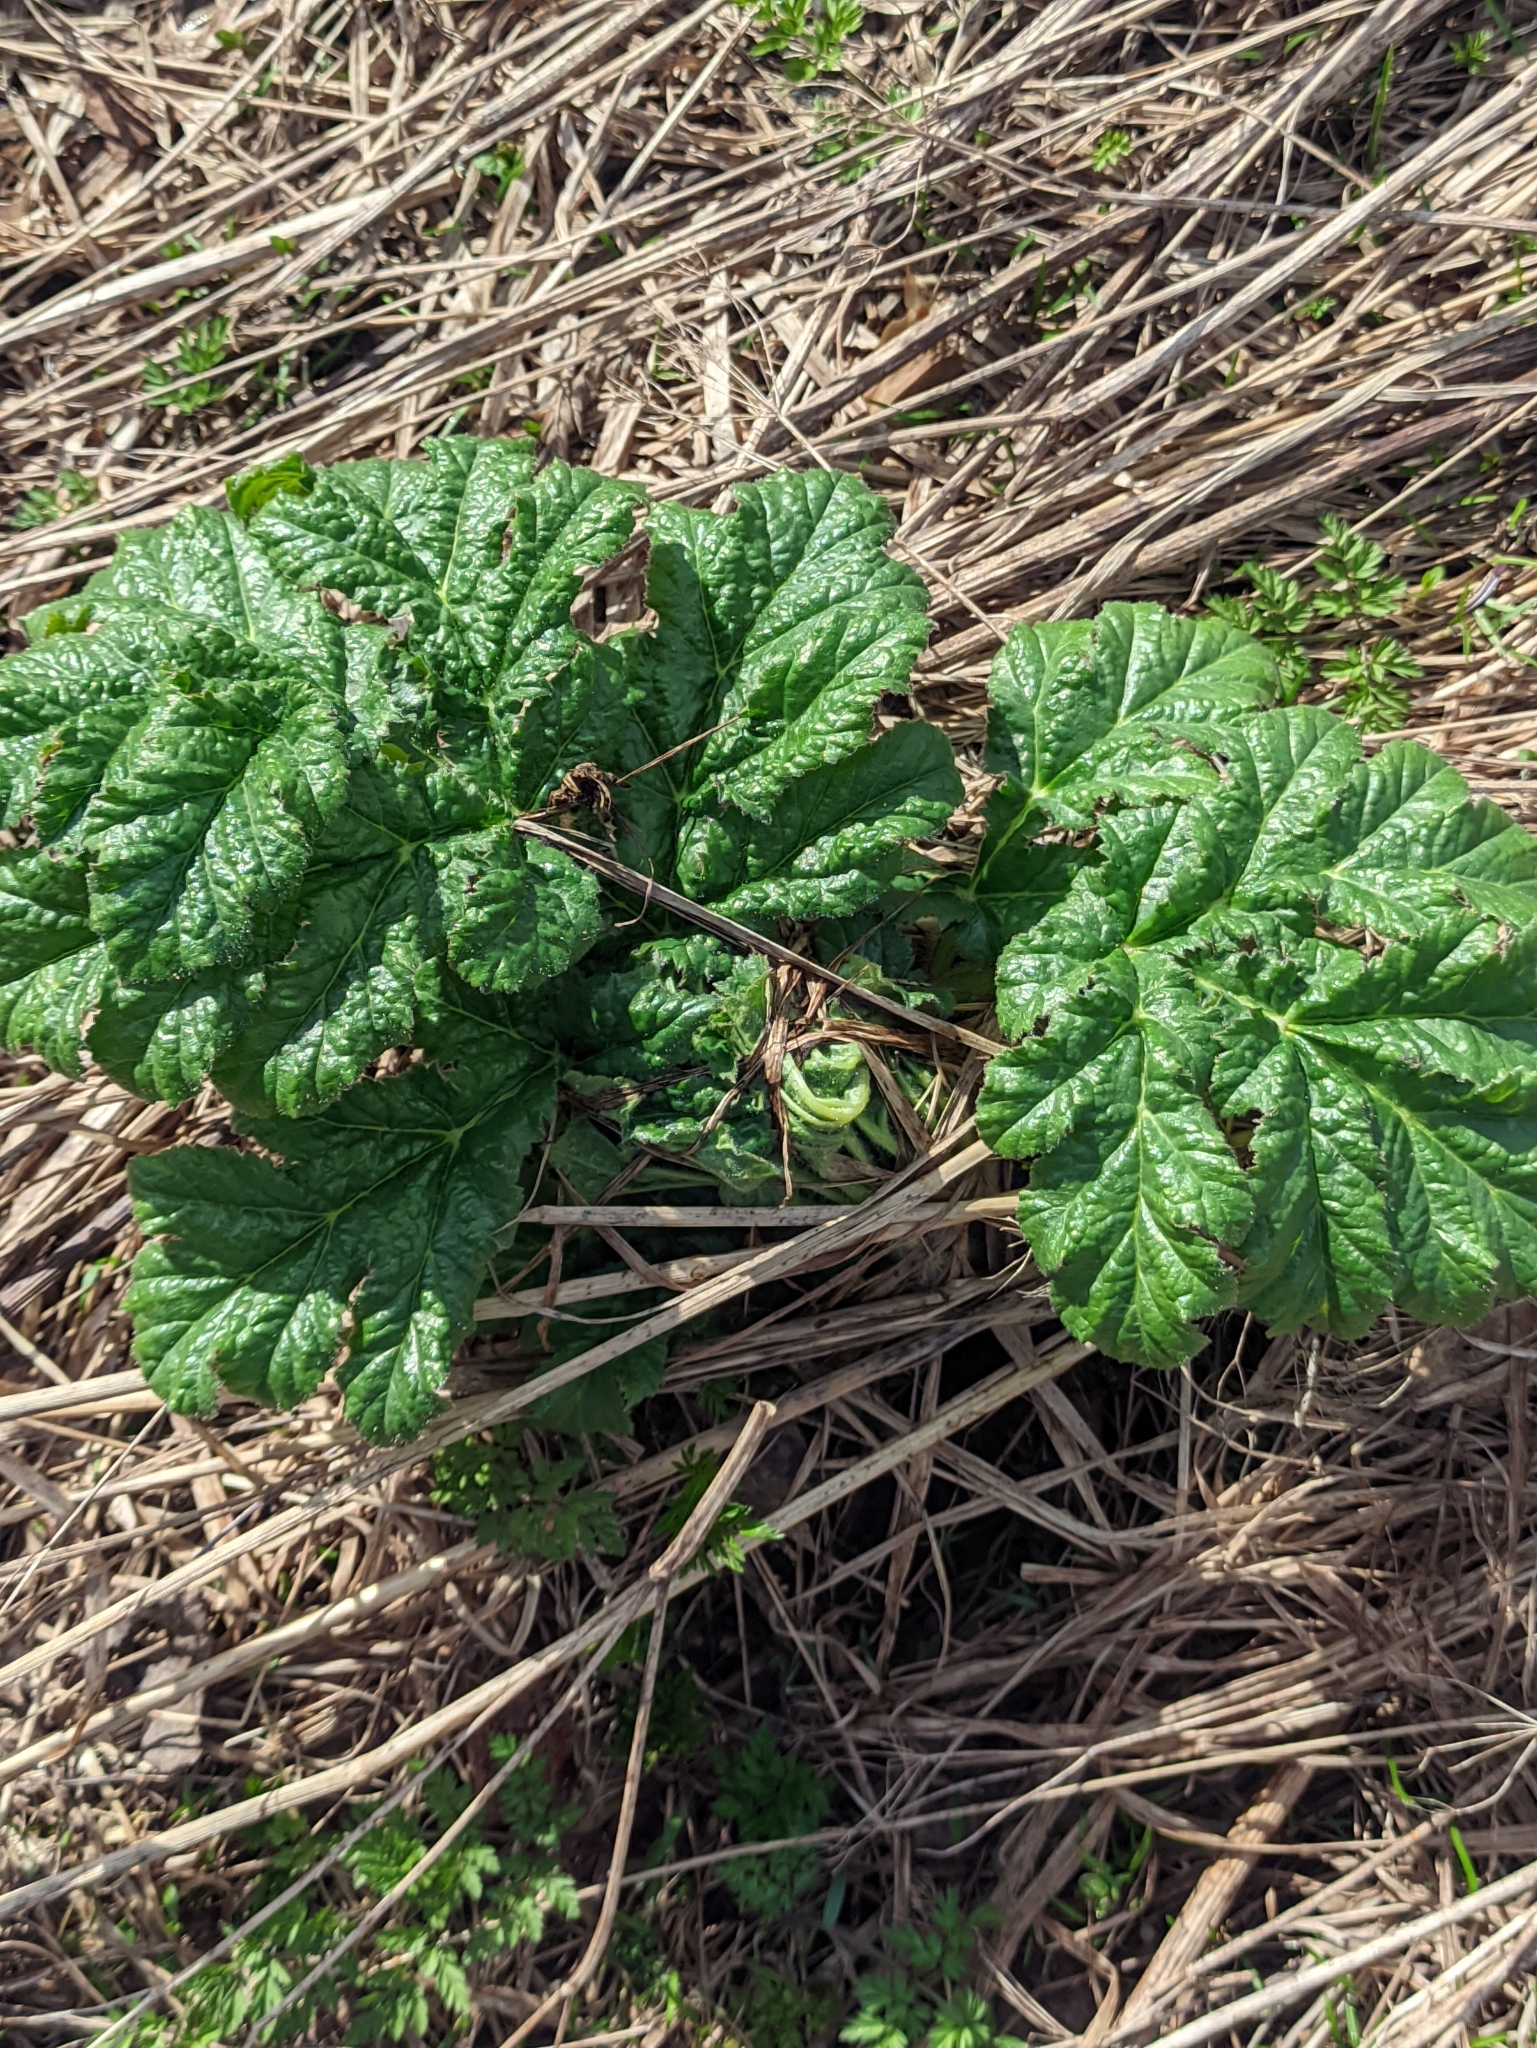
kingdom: Plantae
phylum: Tracheophyta
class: Magnoliopsida
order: Apiales
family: Apiaceae
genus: Heracleum
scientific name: Heracleum sosnowskyi
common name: Sosnowsky's hogweed
